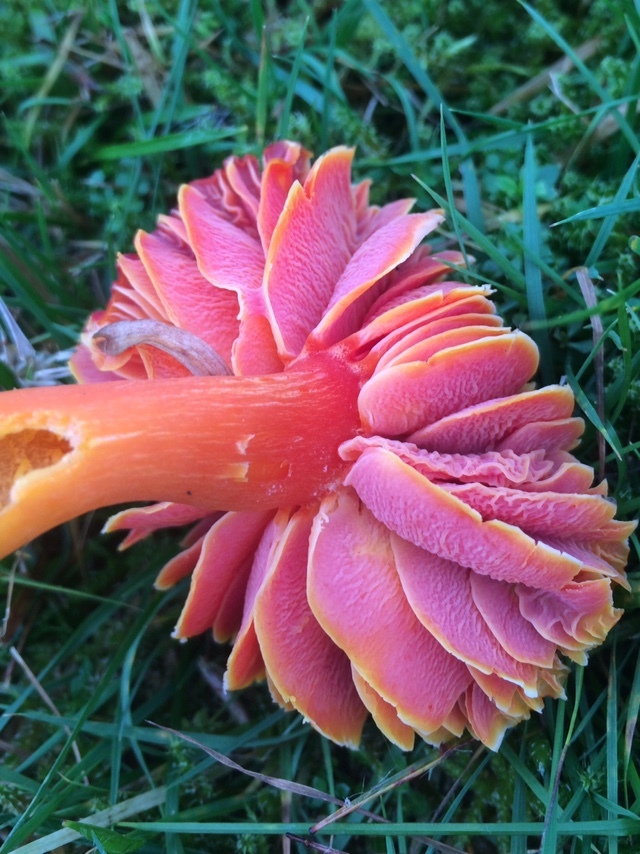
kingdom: Fungi
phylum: Basidiomycota
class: Agaricomycetes
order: Agaricales
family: Hygrophoraceae
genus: Hygrocybe
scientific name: Hygrocybe punicea
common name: Crimson waxcap
